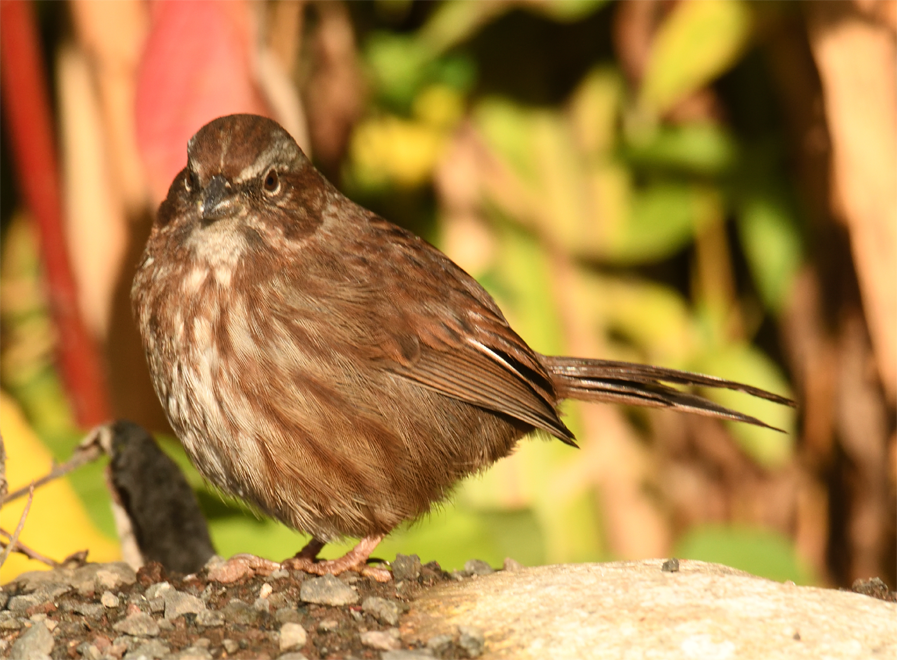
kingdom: Animalia
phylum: Chordata
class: Aves
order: Passeriformes
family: Passerellidae
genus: Melospiza
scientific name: Melospiza melodia
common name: Song sparrow
